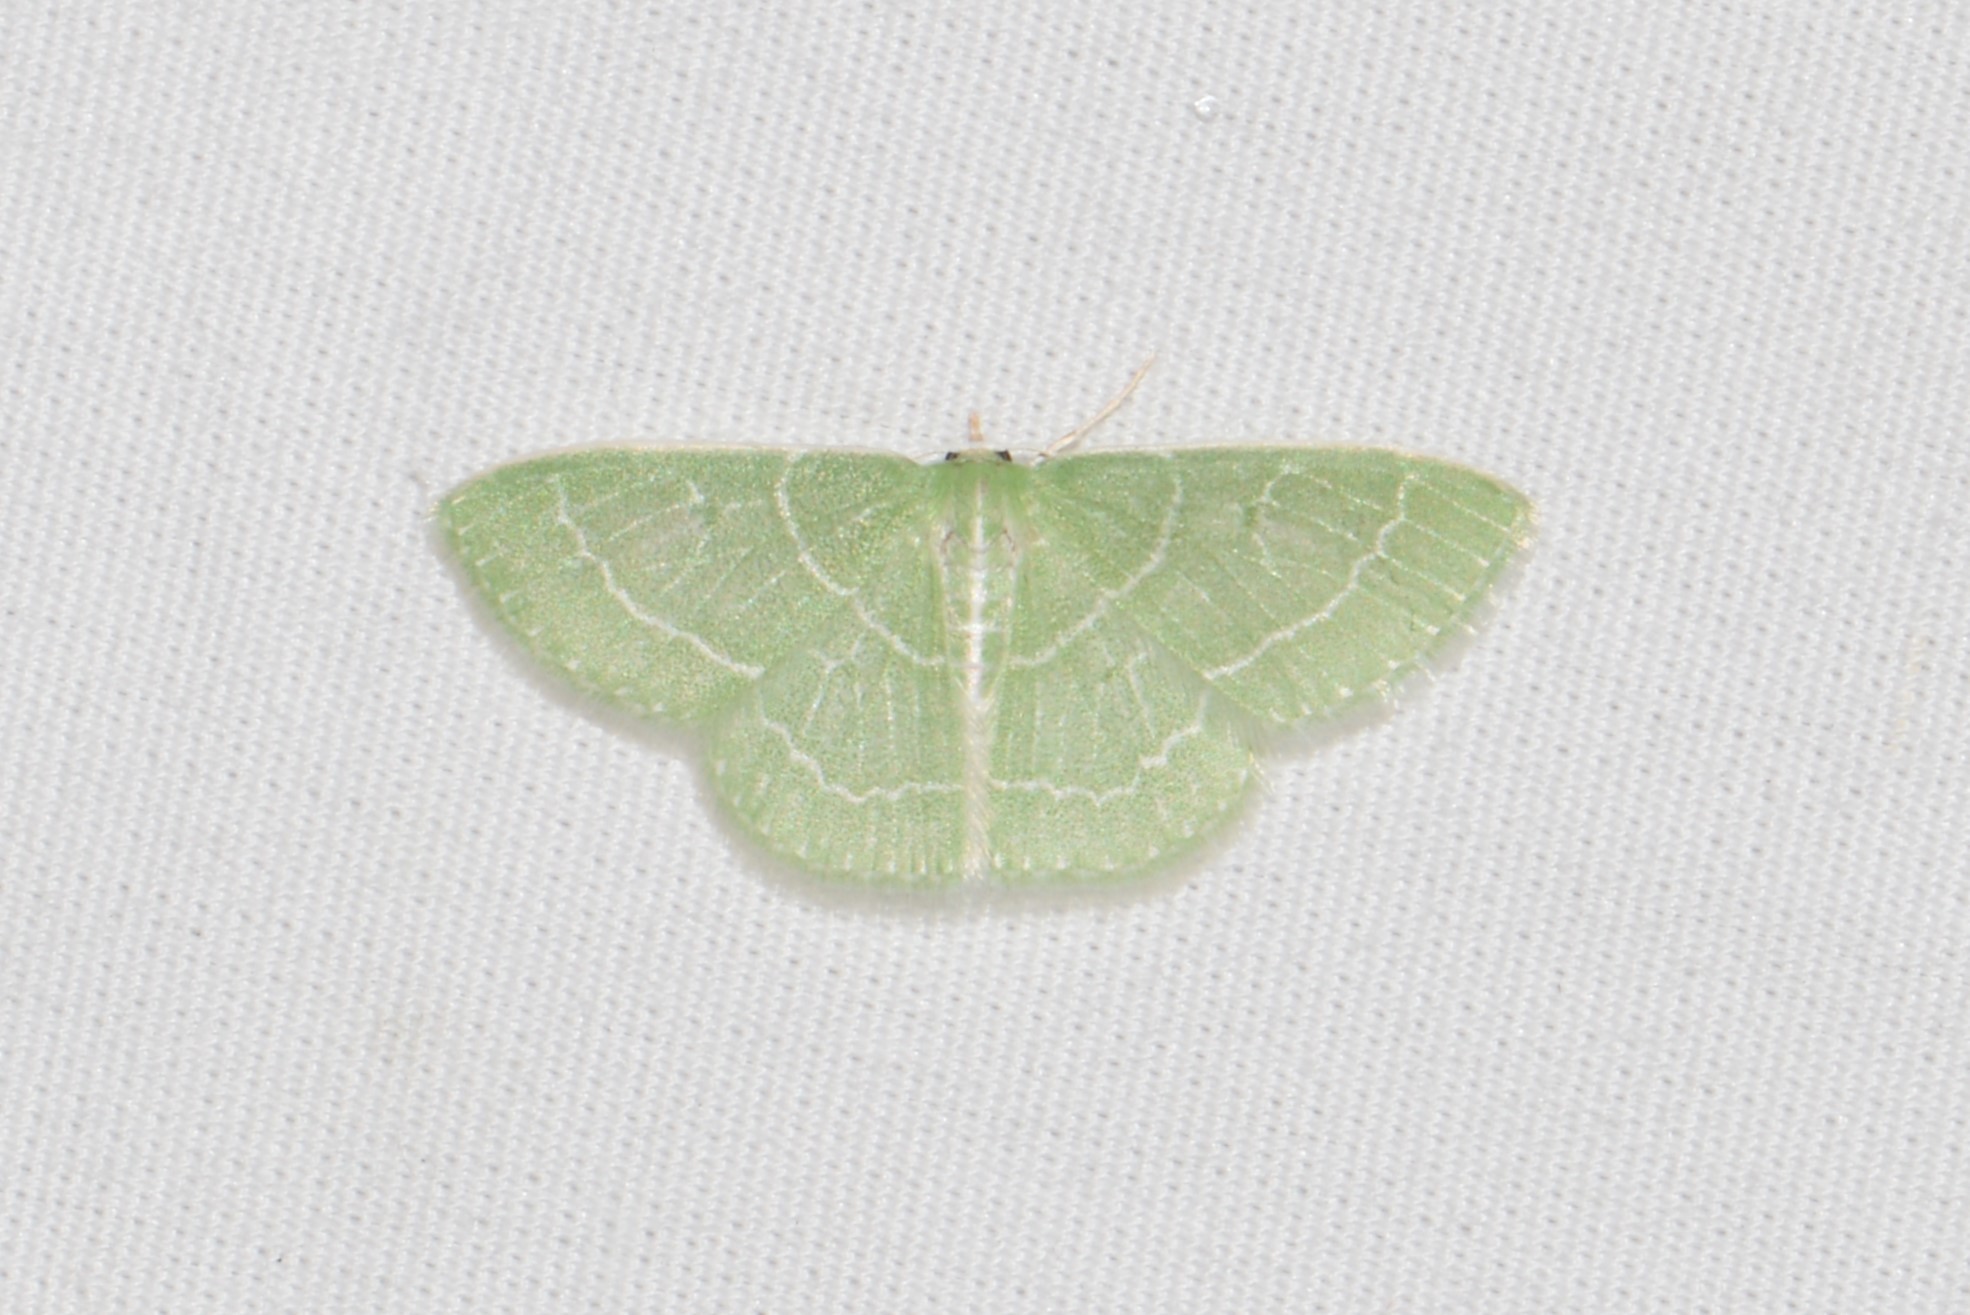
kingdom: Animalia
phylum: Arthropoda
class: Insecta
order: Lepidoptera
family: Geometridae
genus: Synchlora
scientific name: Synchlora aerata
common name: Wavy-lined emerald
